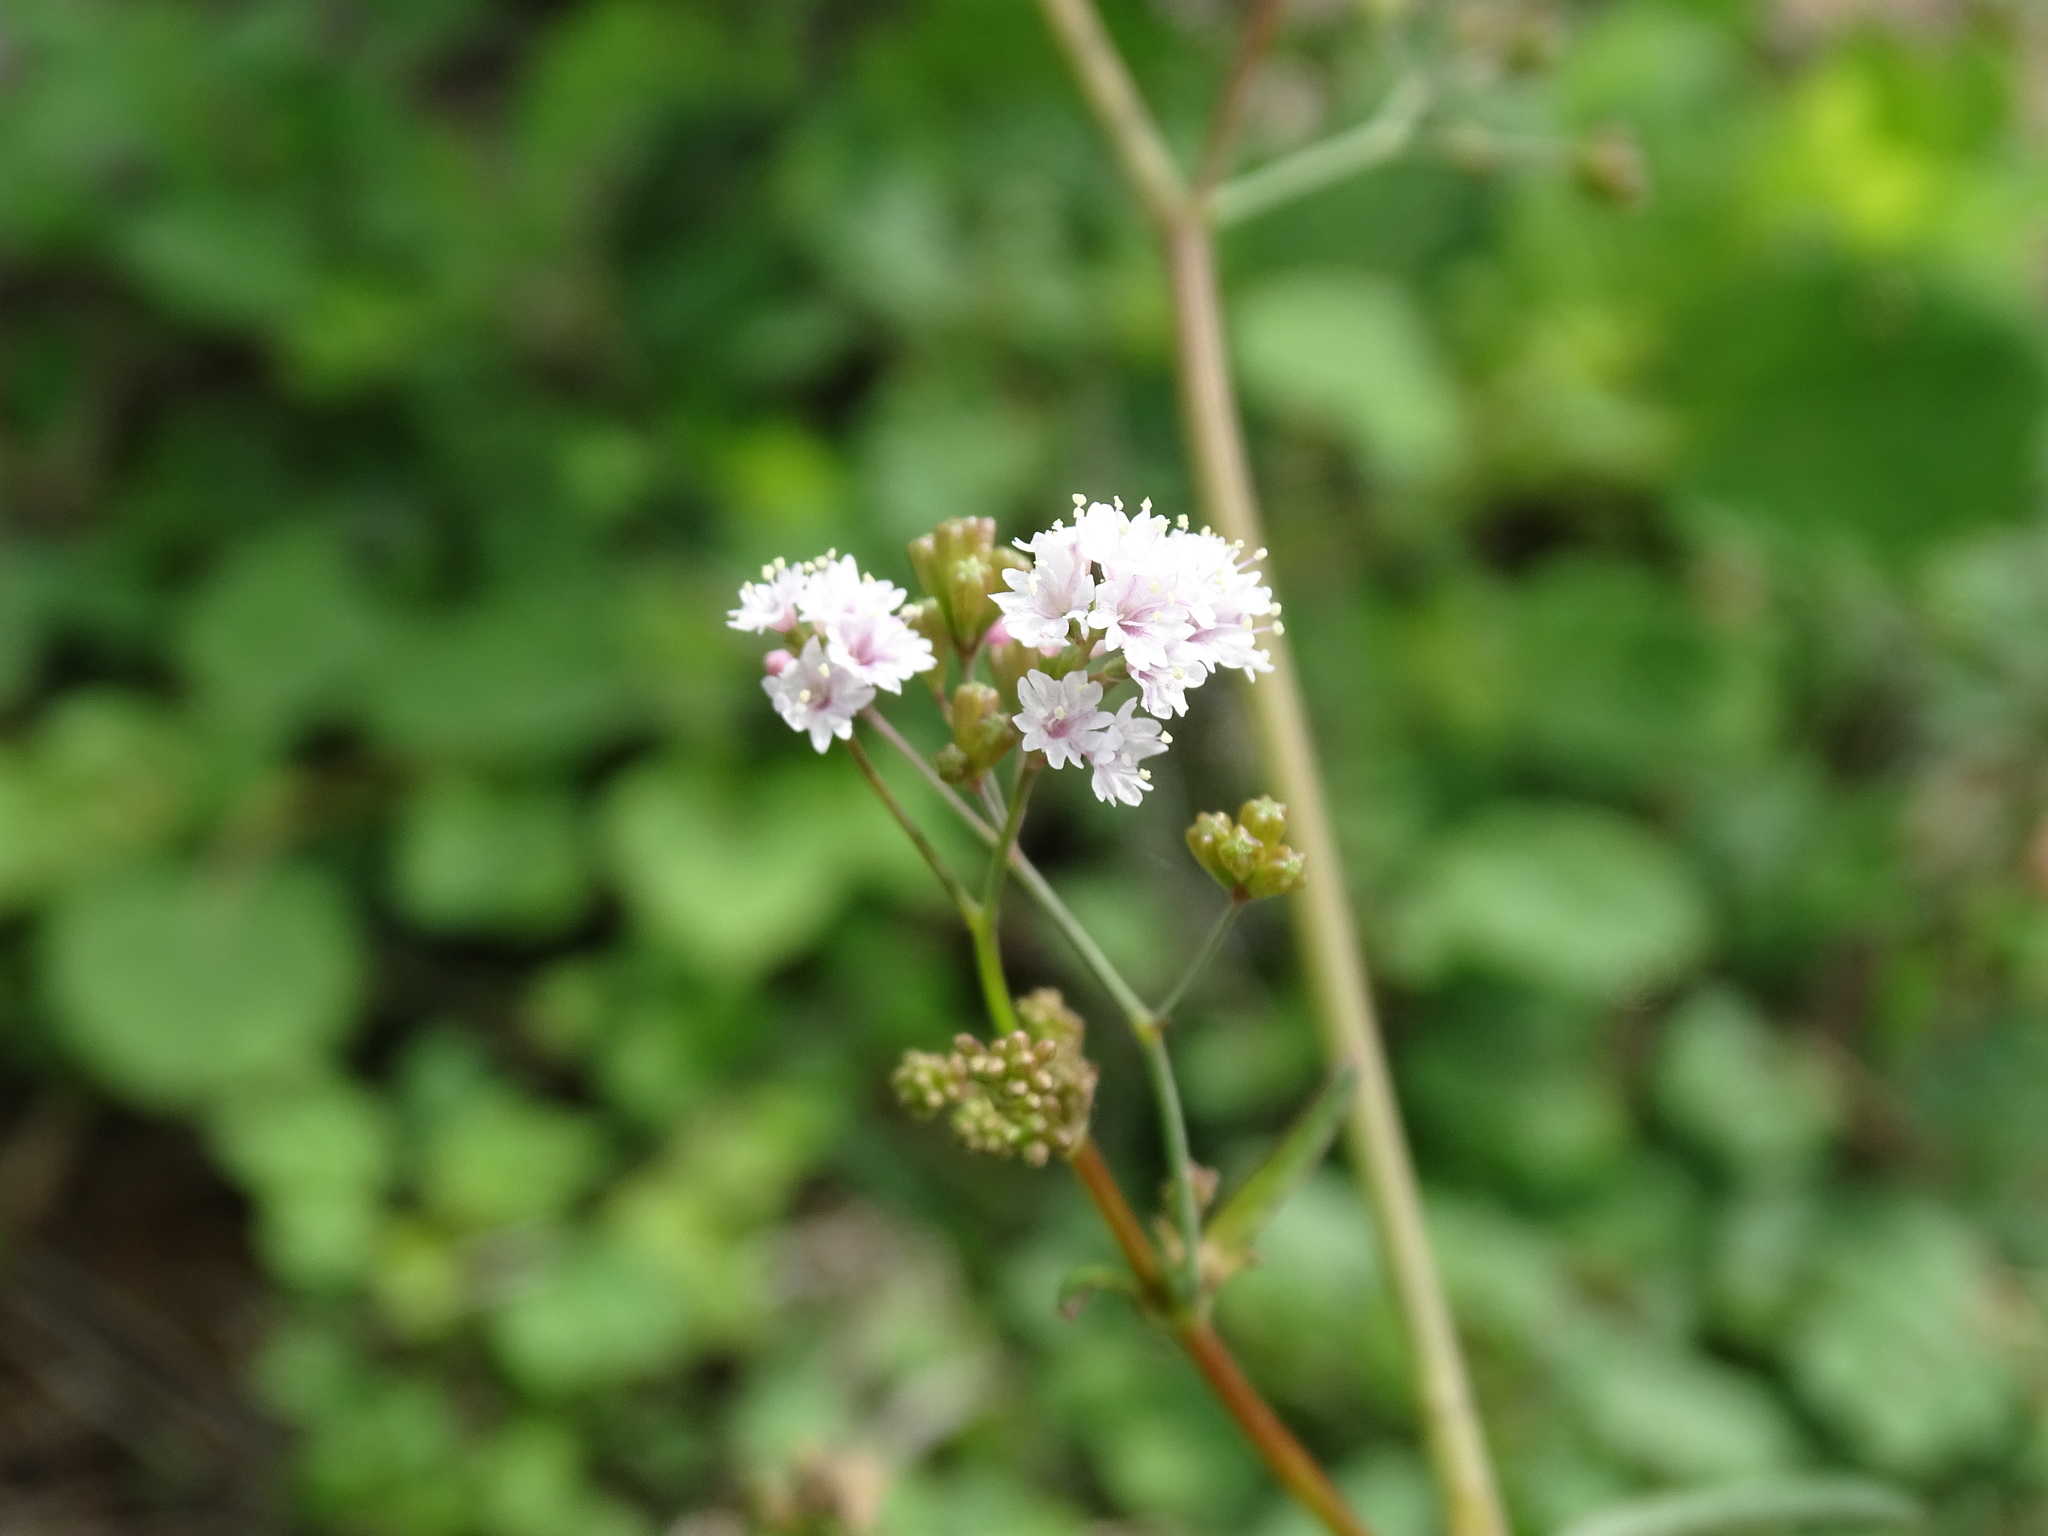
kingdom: Plantae
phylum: Tracheophyta
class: Magnoliopsida
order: Caryophyllales
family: Nyctaginaceae
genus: Boerhavia
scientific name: Boerhavia erecta
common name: Erect spiderling
